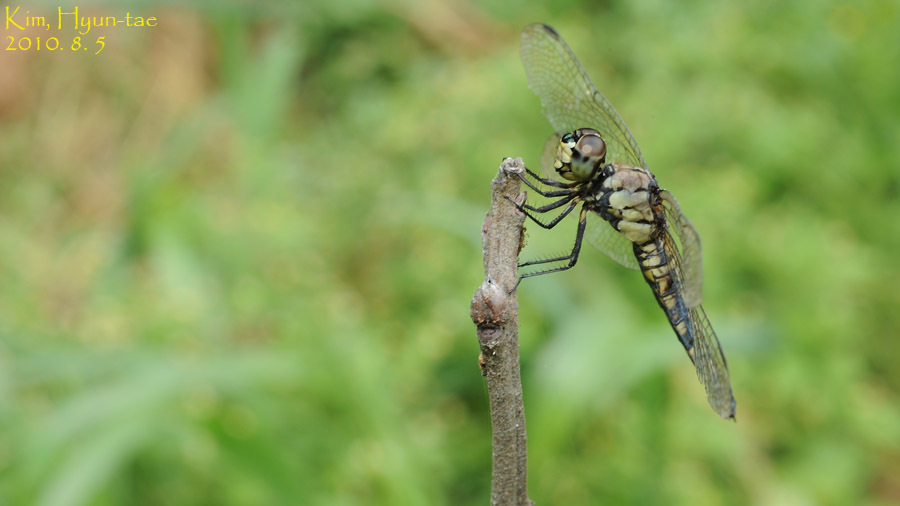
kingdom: Animalia
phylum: Arthropoda
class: Insecta
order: Odonata
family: Libellulidae
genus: Lyriothemis
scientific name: Lyriothemis pachygastra
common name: Wide-bellied skimmer
